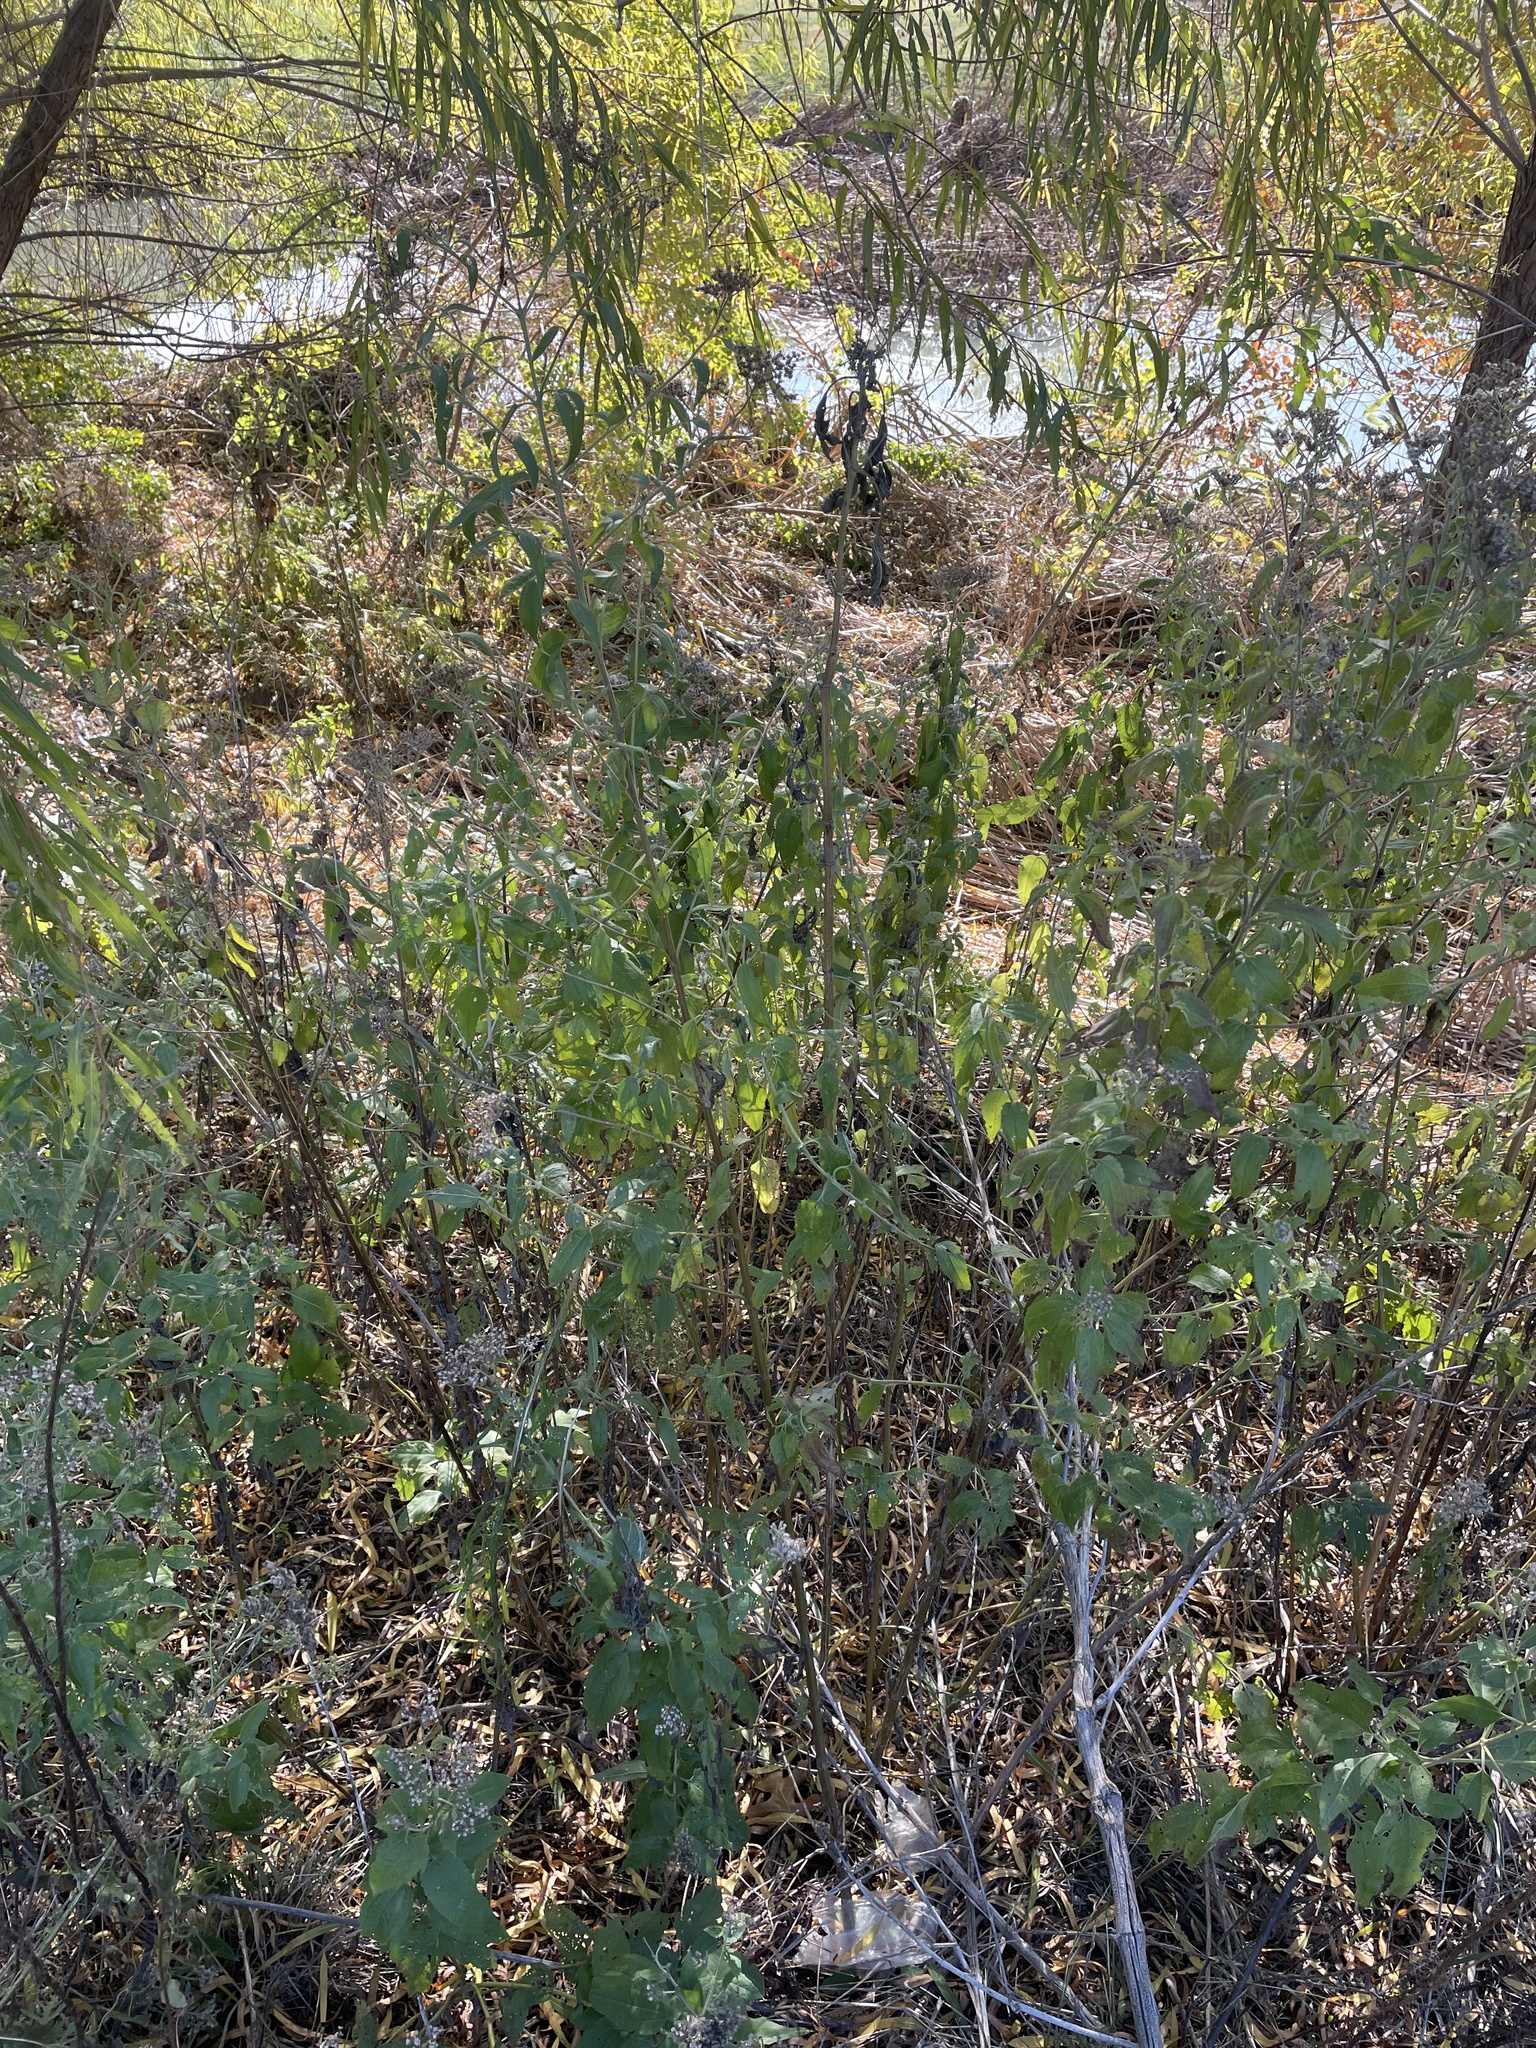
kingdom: Plantae
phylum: Tracheophyta
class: Magnoliopsida
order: Asterales
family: Asteraceae
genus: Eupatorium
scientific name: Eupatorium serotinum
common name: Late boneset
